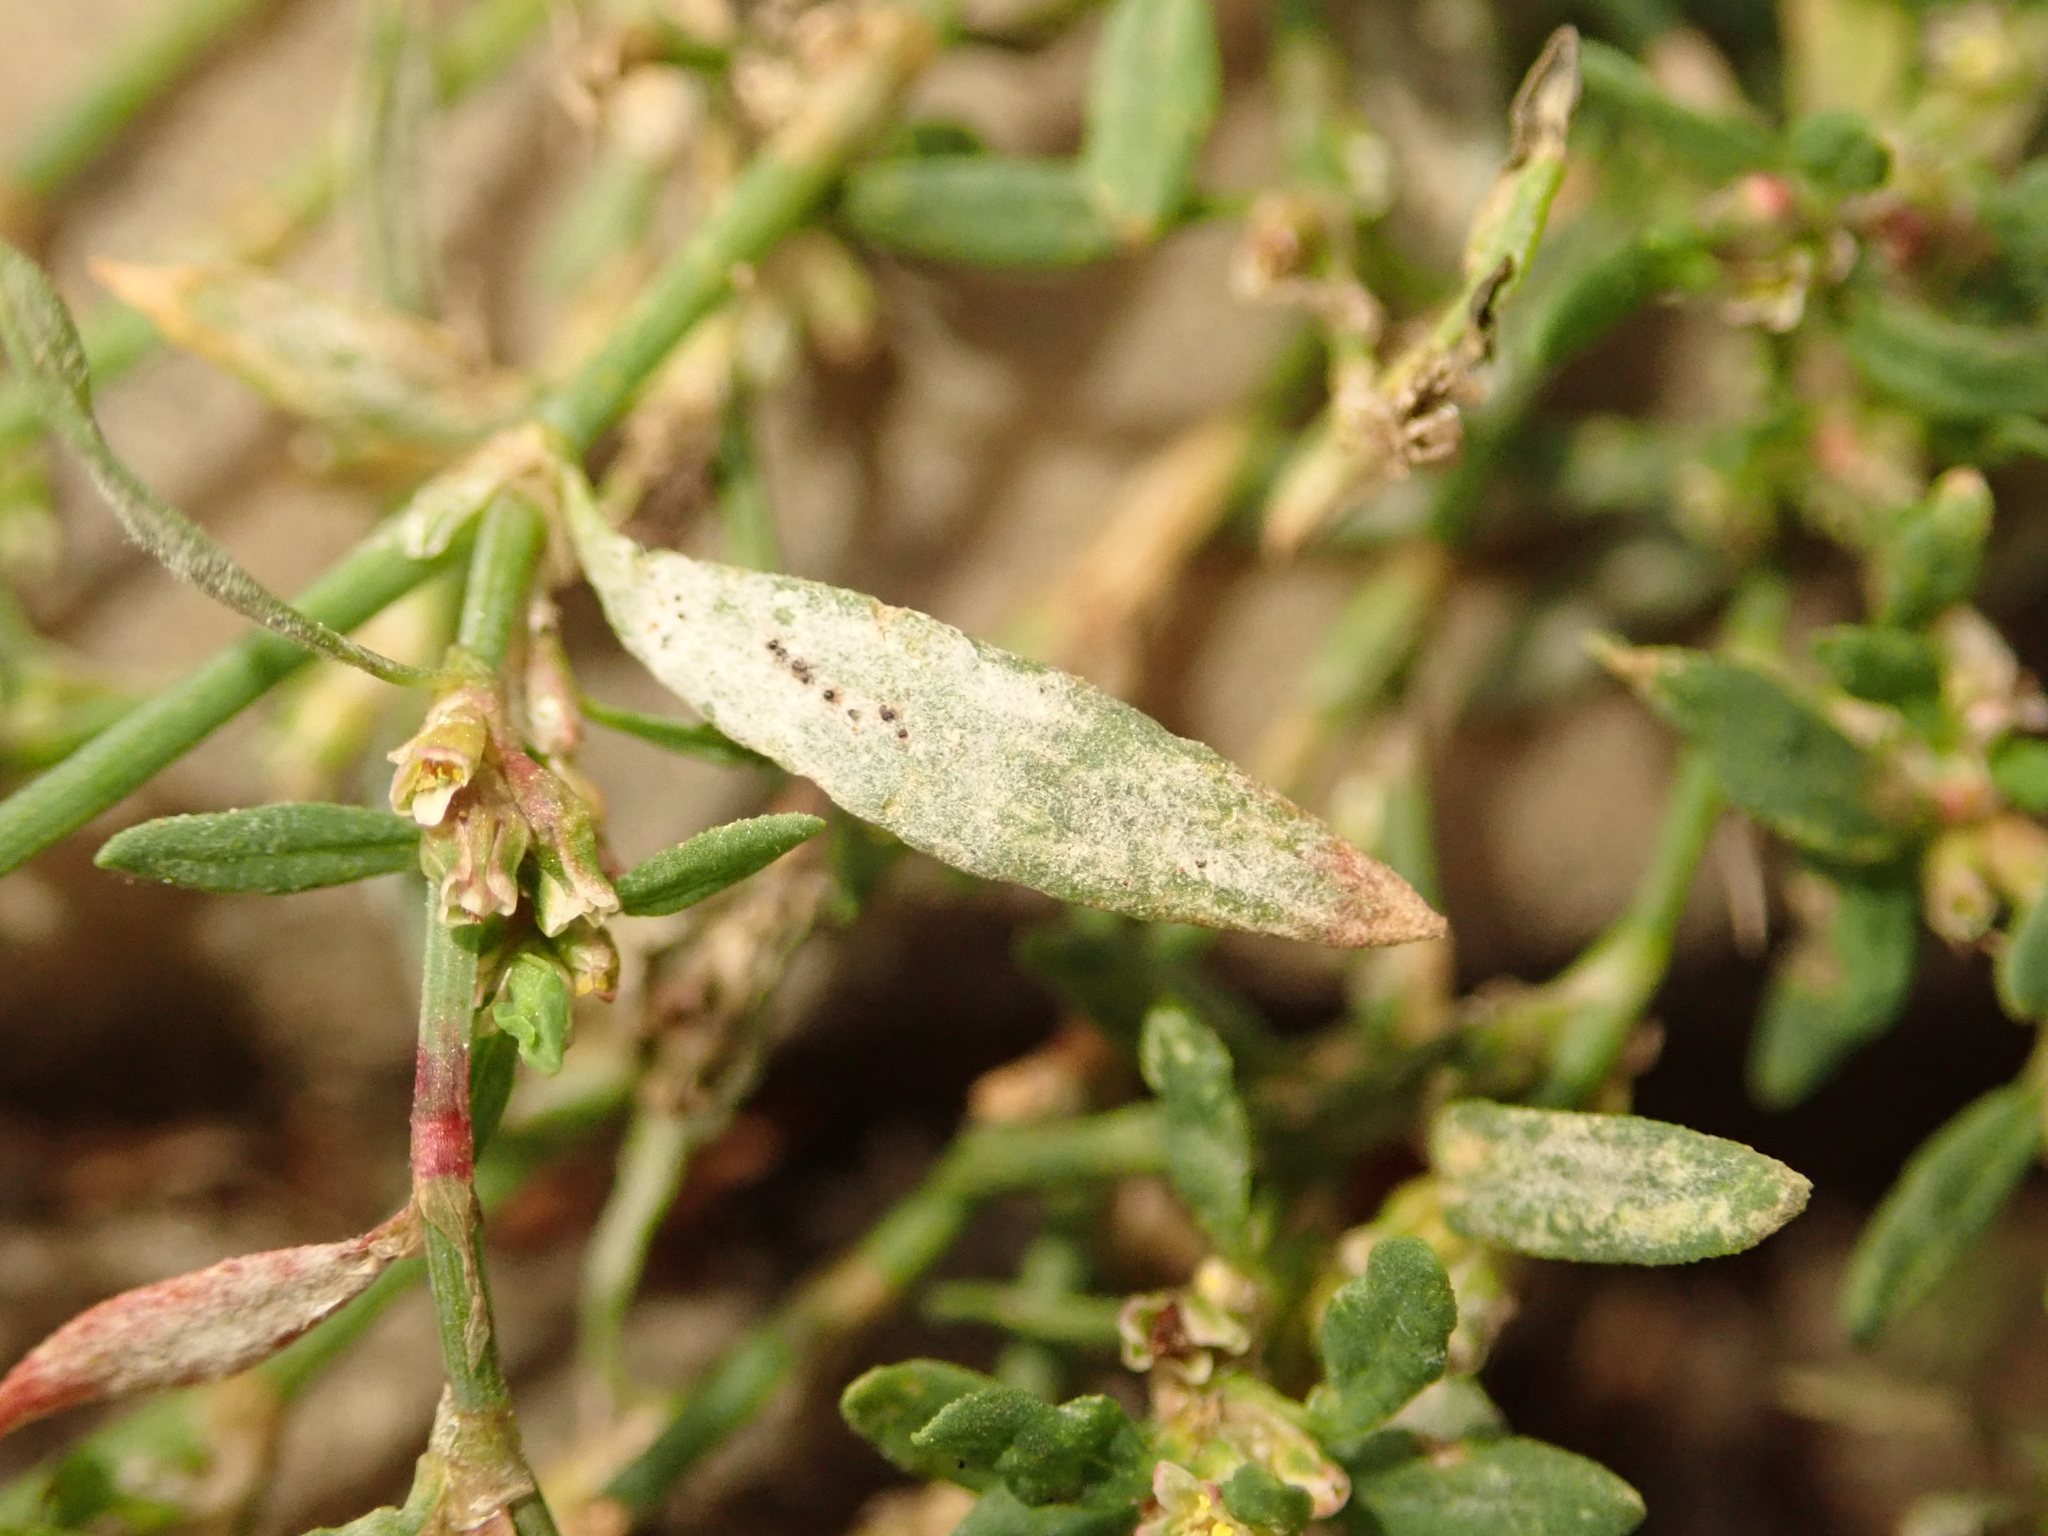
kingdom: Fungi
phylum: Ascomycota
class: Leotiomycetes
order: Helotiales
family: Erysiphaceae
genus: Erysiphe
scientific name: Erysiphe polygoni
